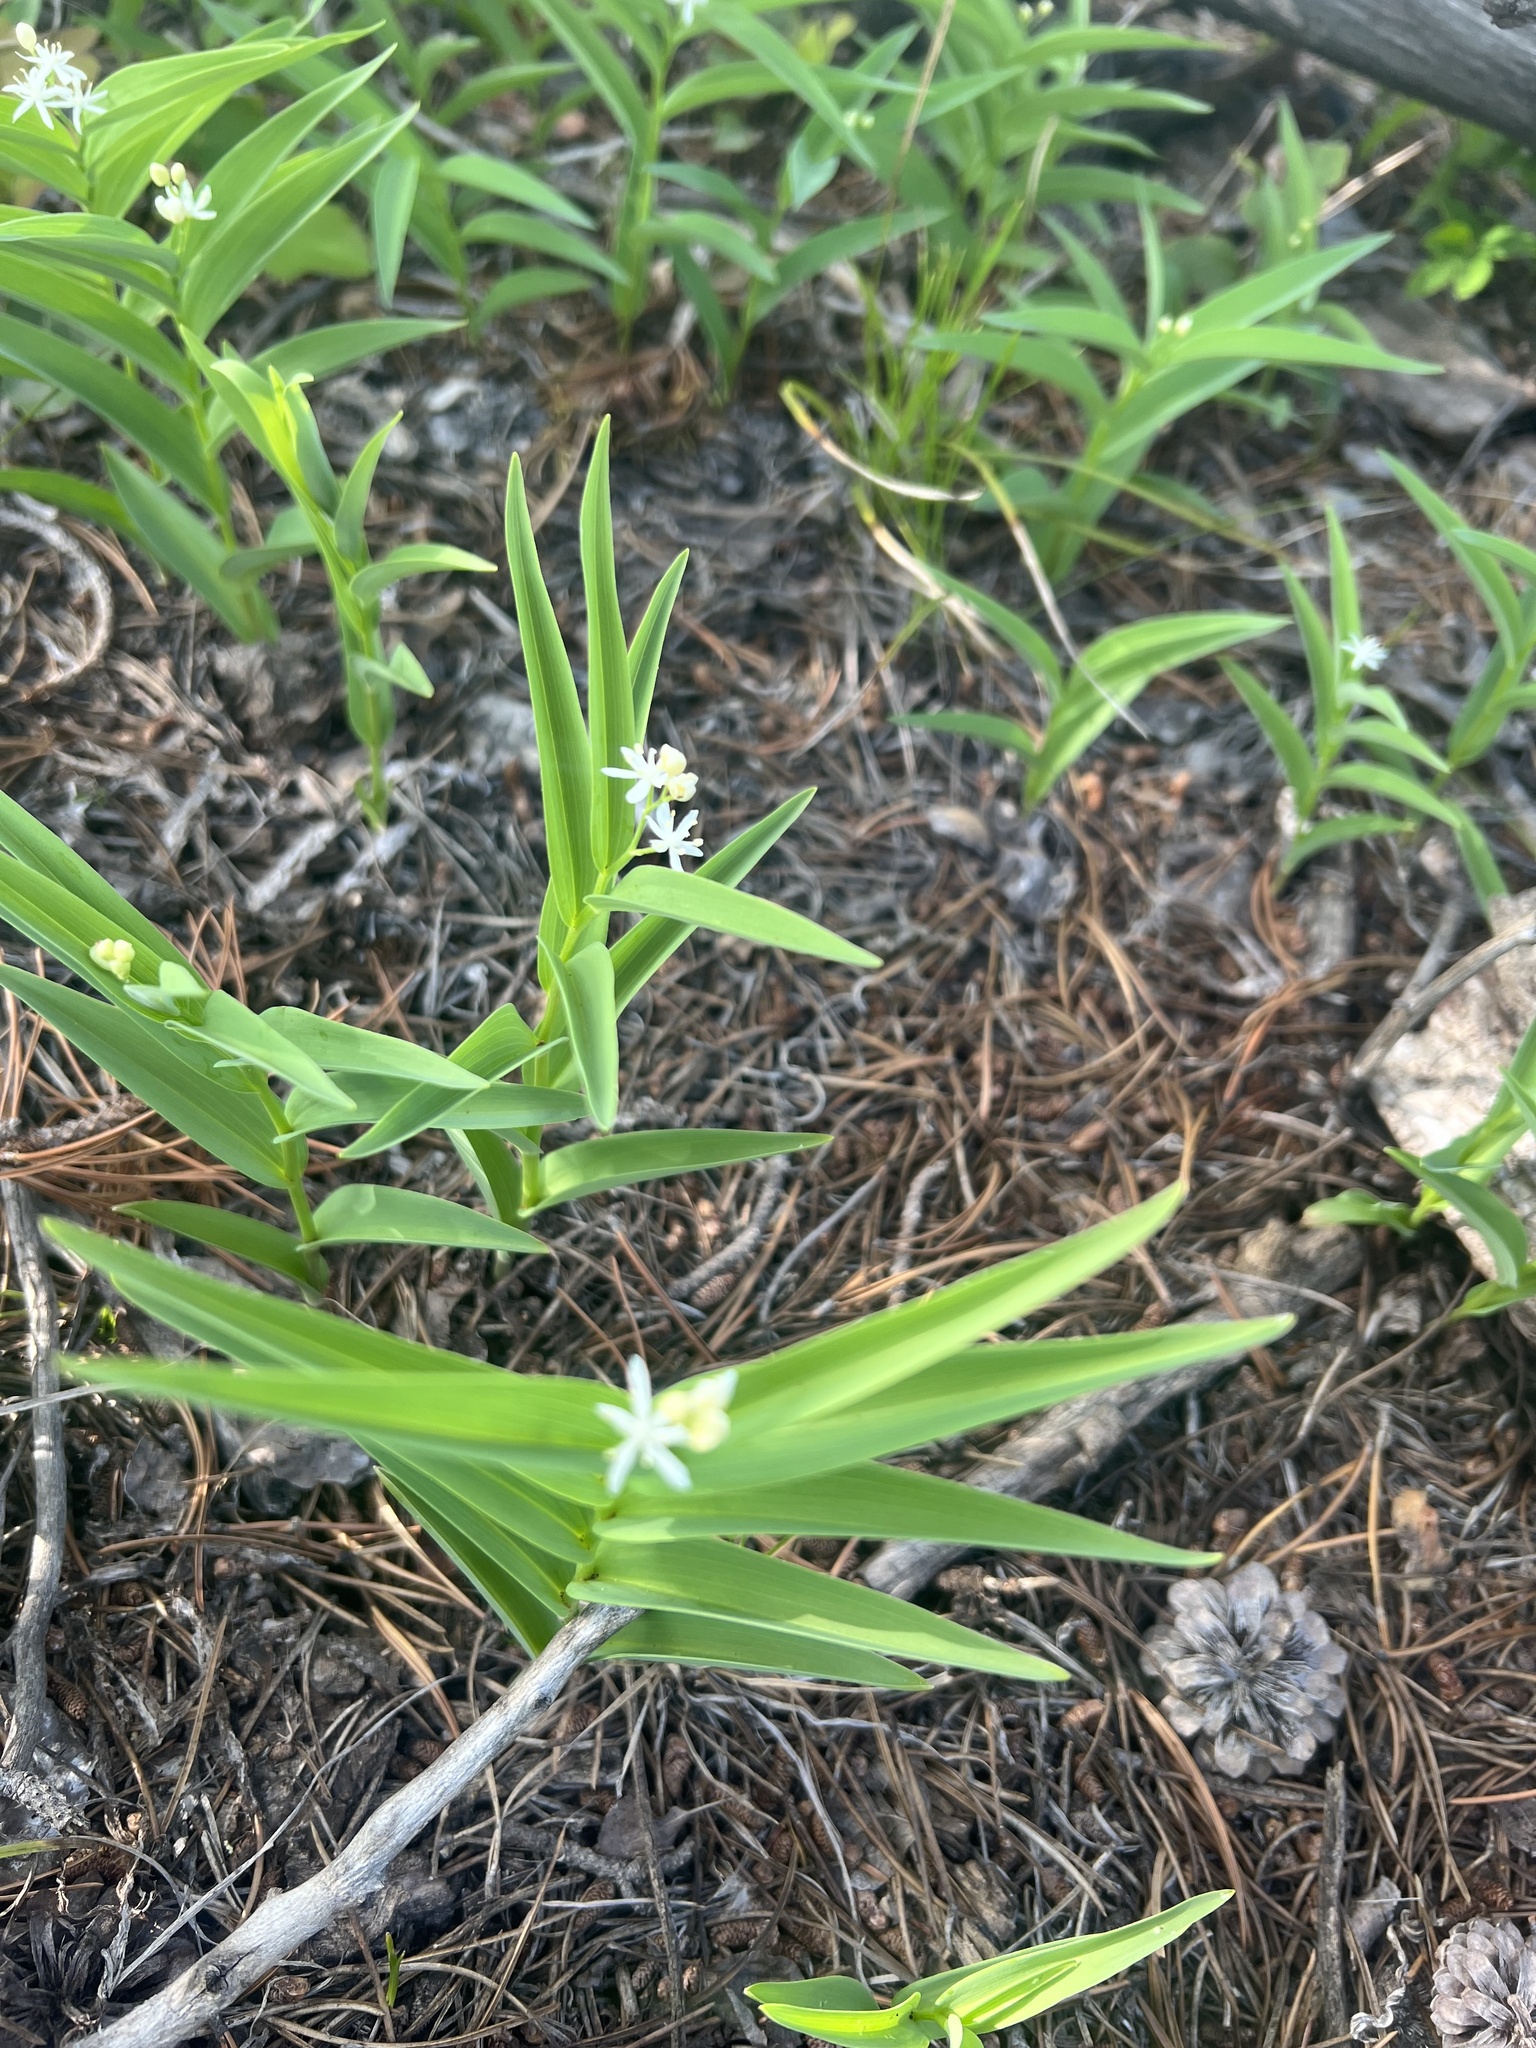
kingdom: Plantae
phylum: Tracheophyta
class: Liliopsida
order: Asparagales
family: Asparagaceae
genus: Maianthemum
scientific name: Maianthemum stellatum
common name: Little false solomon's seal
